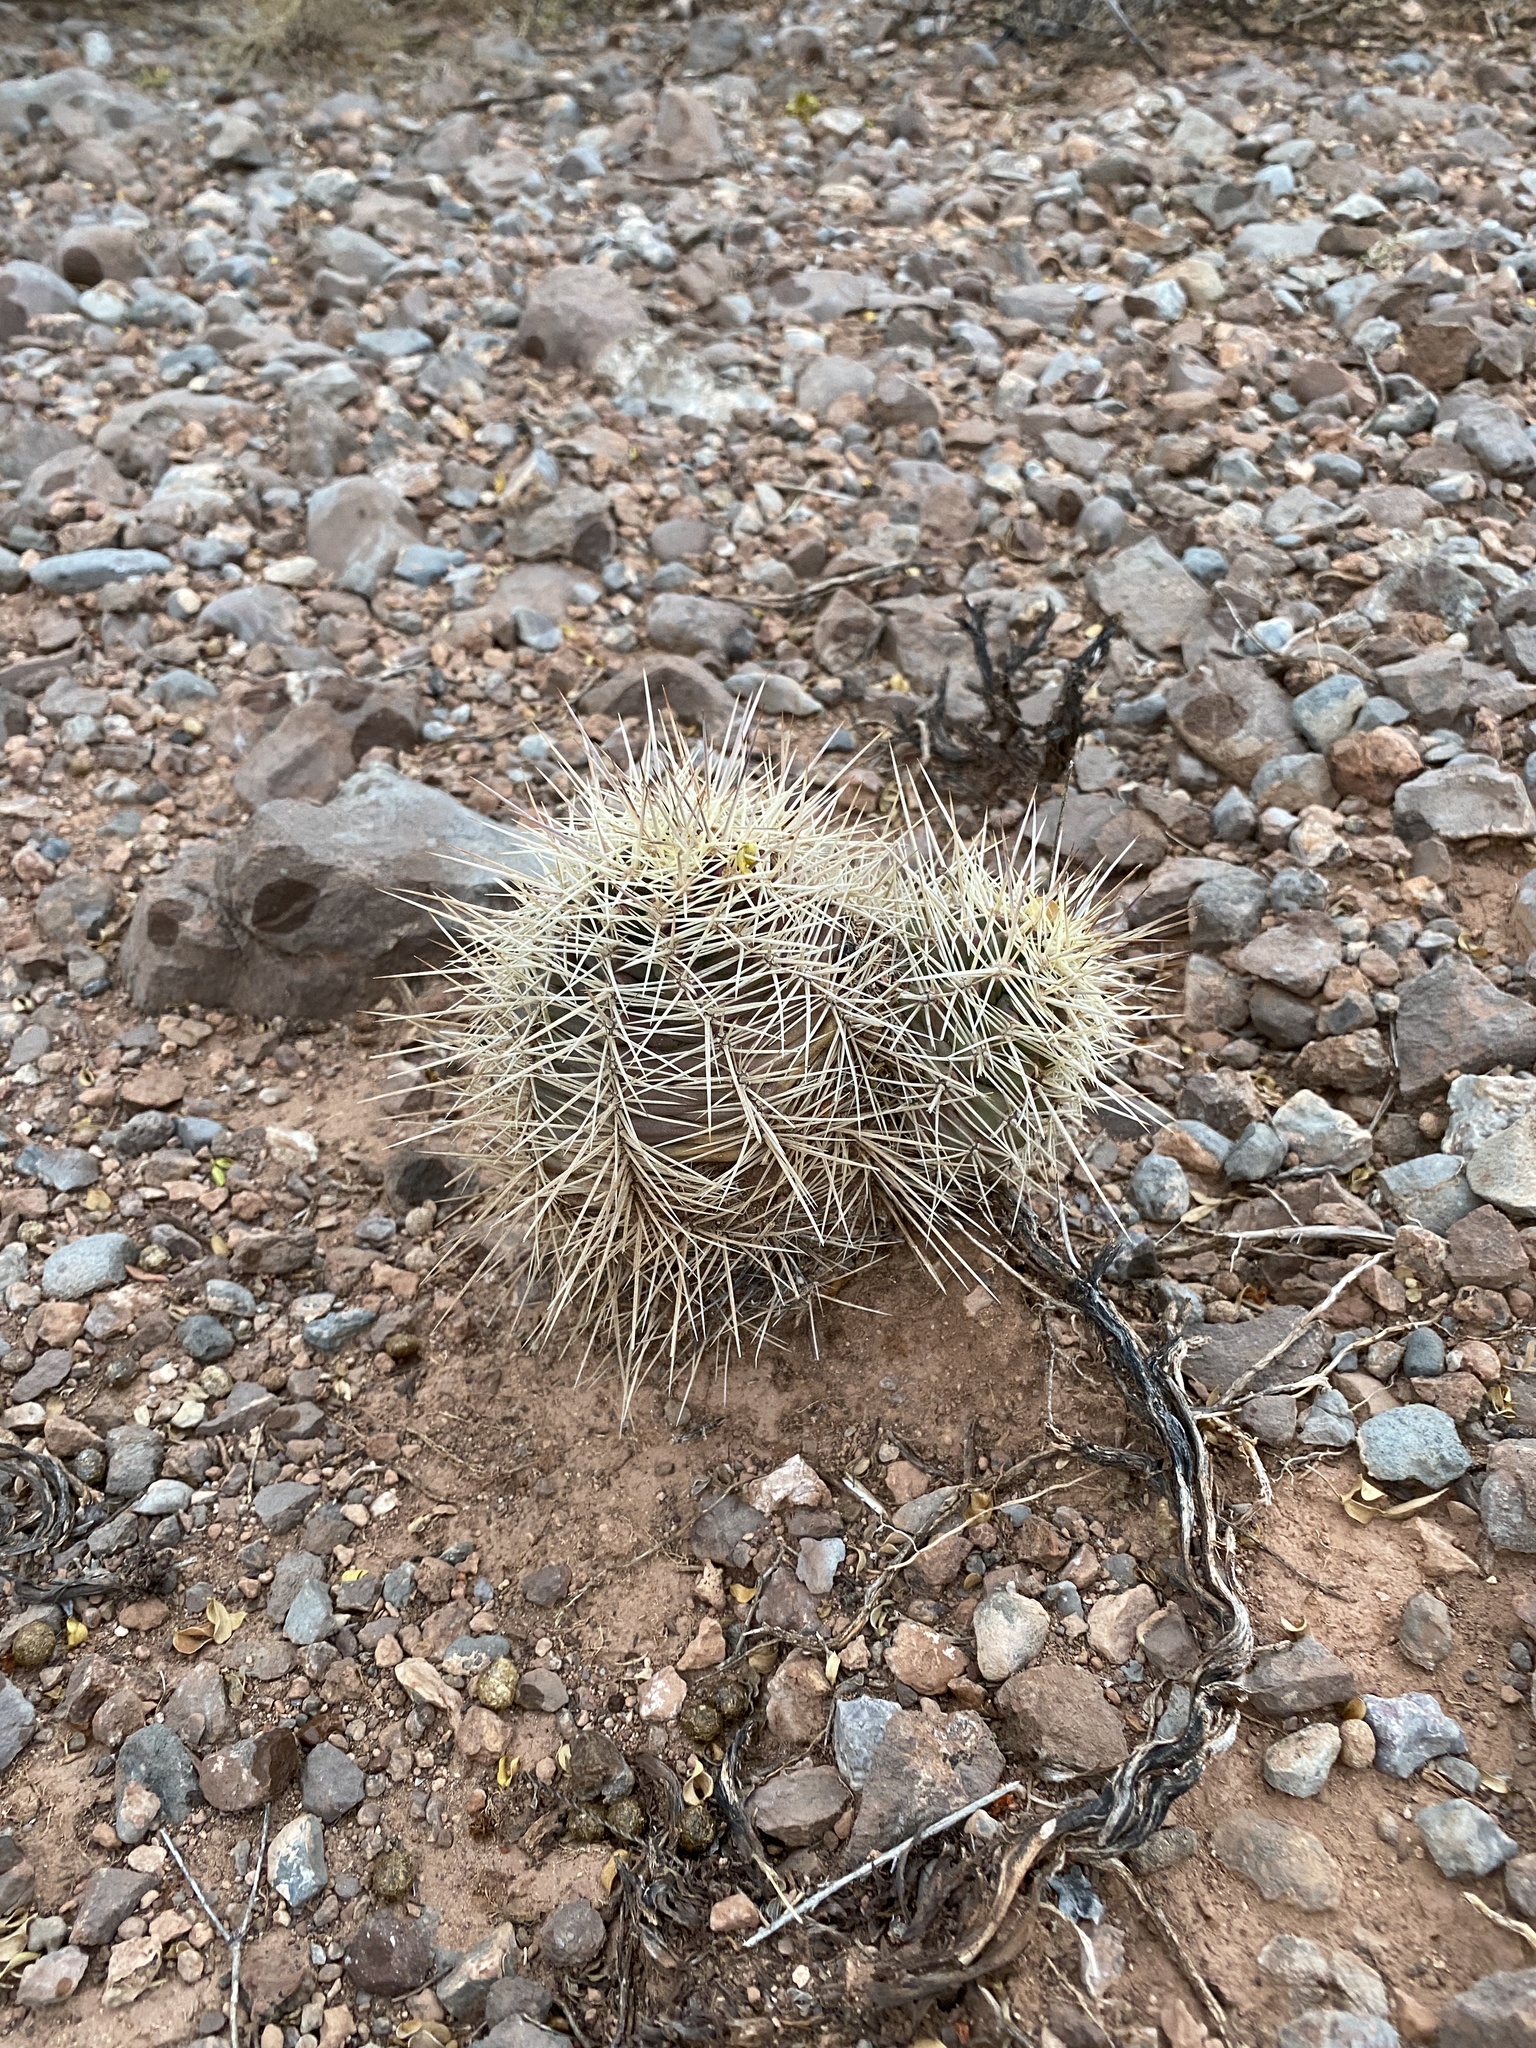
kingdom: Plantae
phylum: Tracheophyta
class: Magnoliopsida
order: Caryophyllales
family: Cactaceae
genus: Echinocereus
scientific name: Echinocereus coccineus
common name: Scarlet hedgehog cactus
